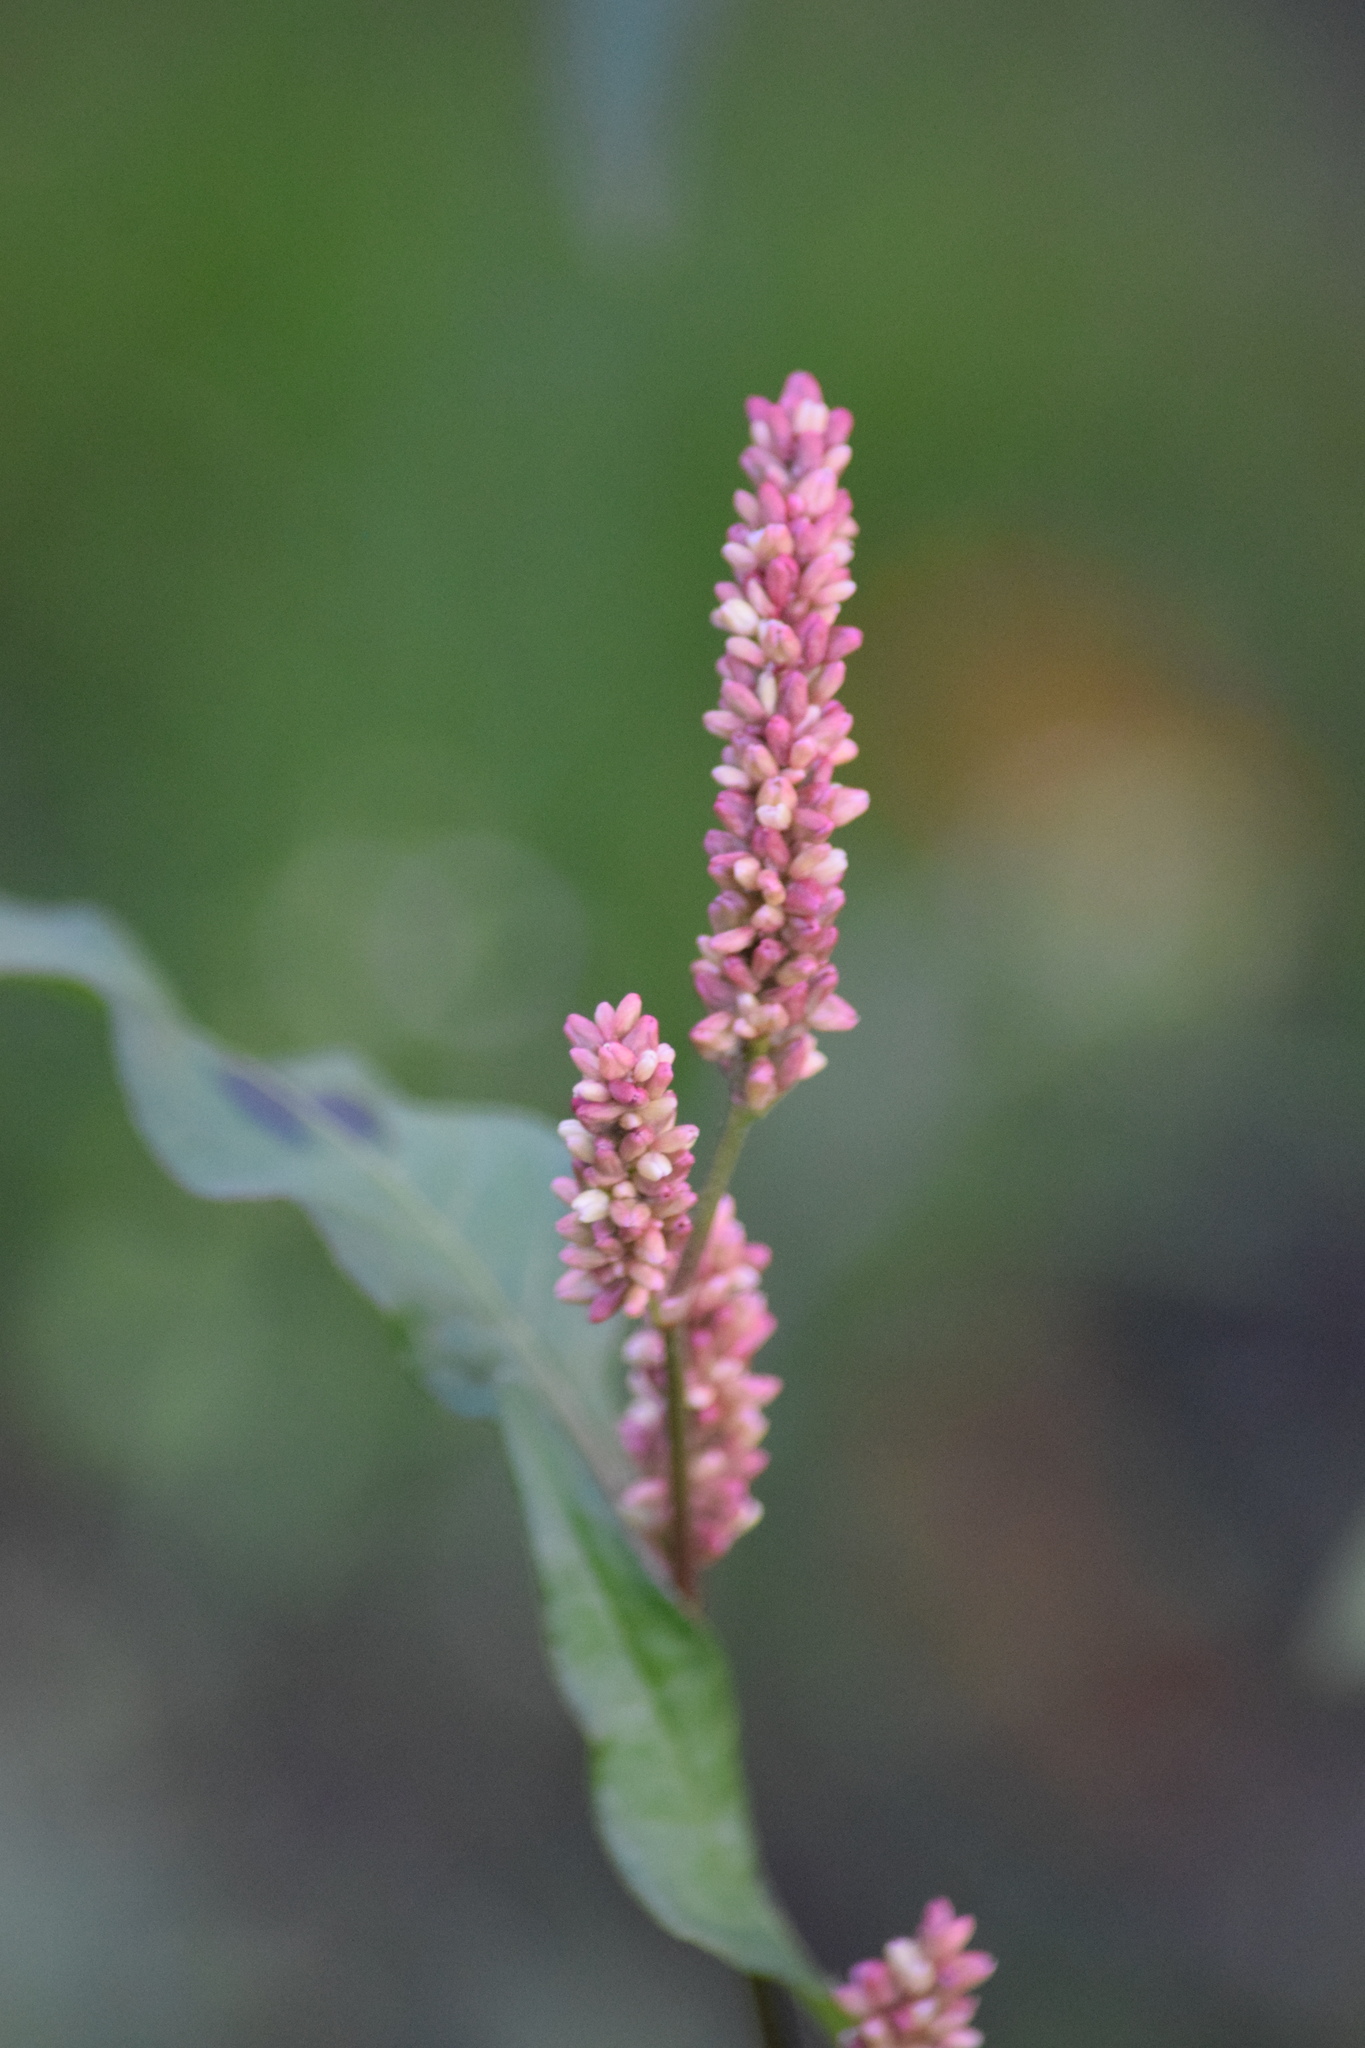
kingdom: Plantae
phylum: Tracheophyta
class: Magnoliopsida
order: Caryophyllales
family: Polygonaceae
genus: Persicaria
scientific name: Persicaria maculosa
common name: Redshank
